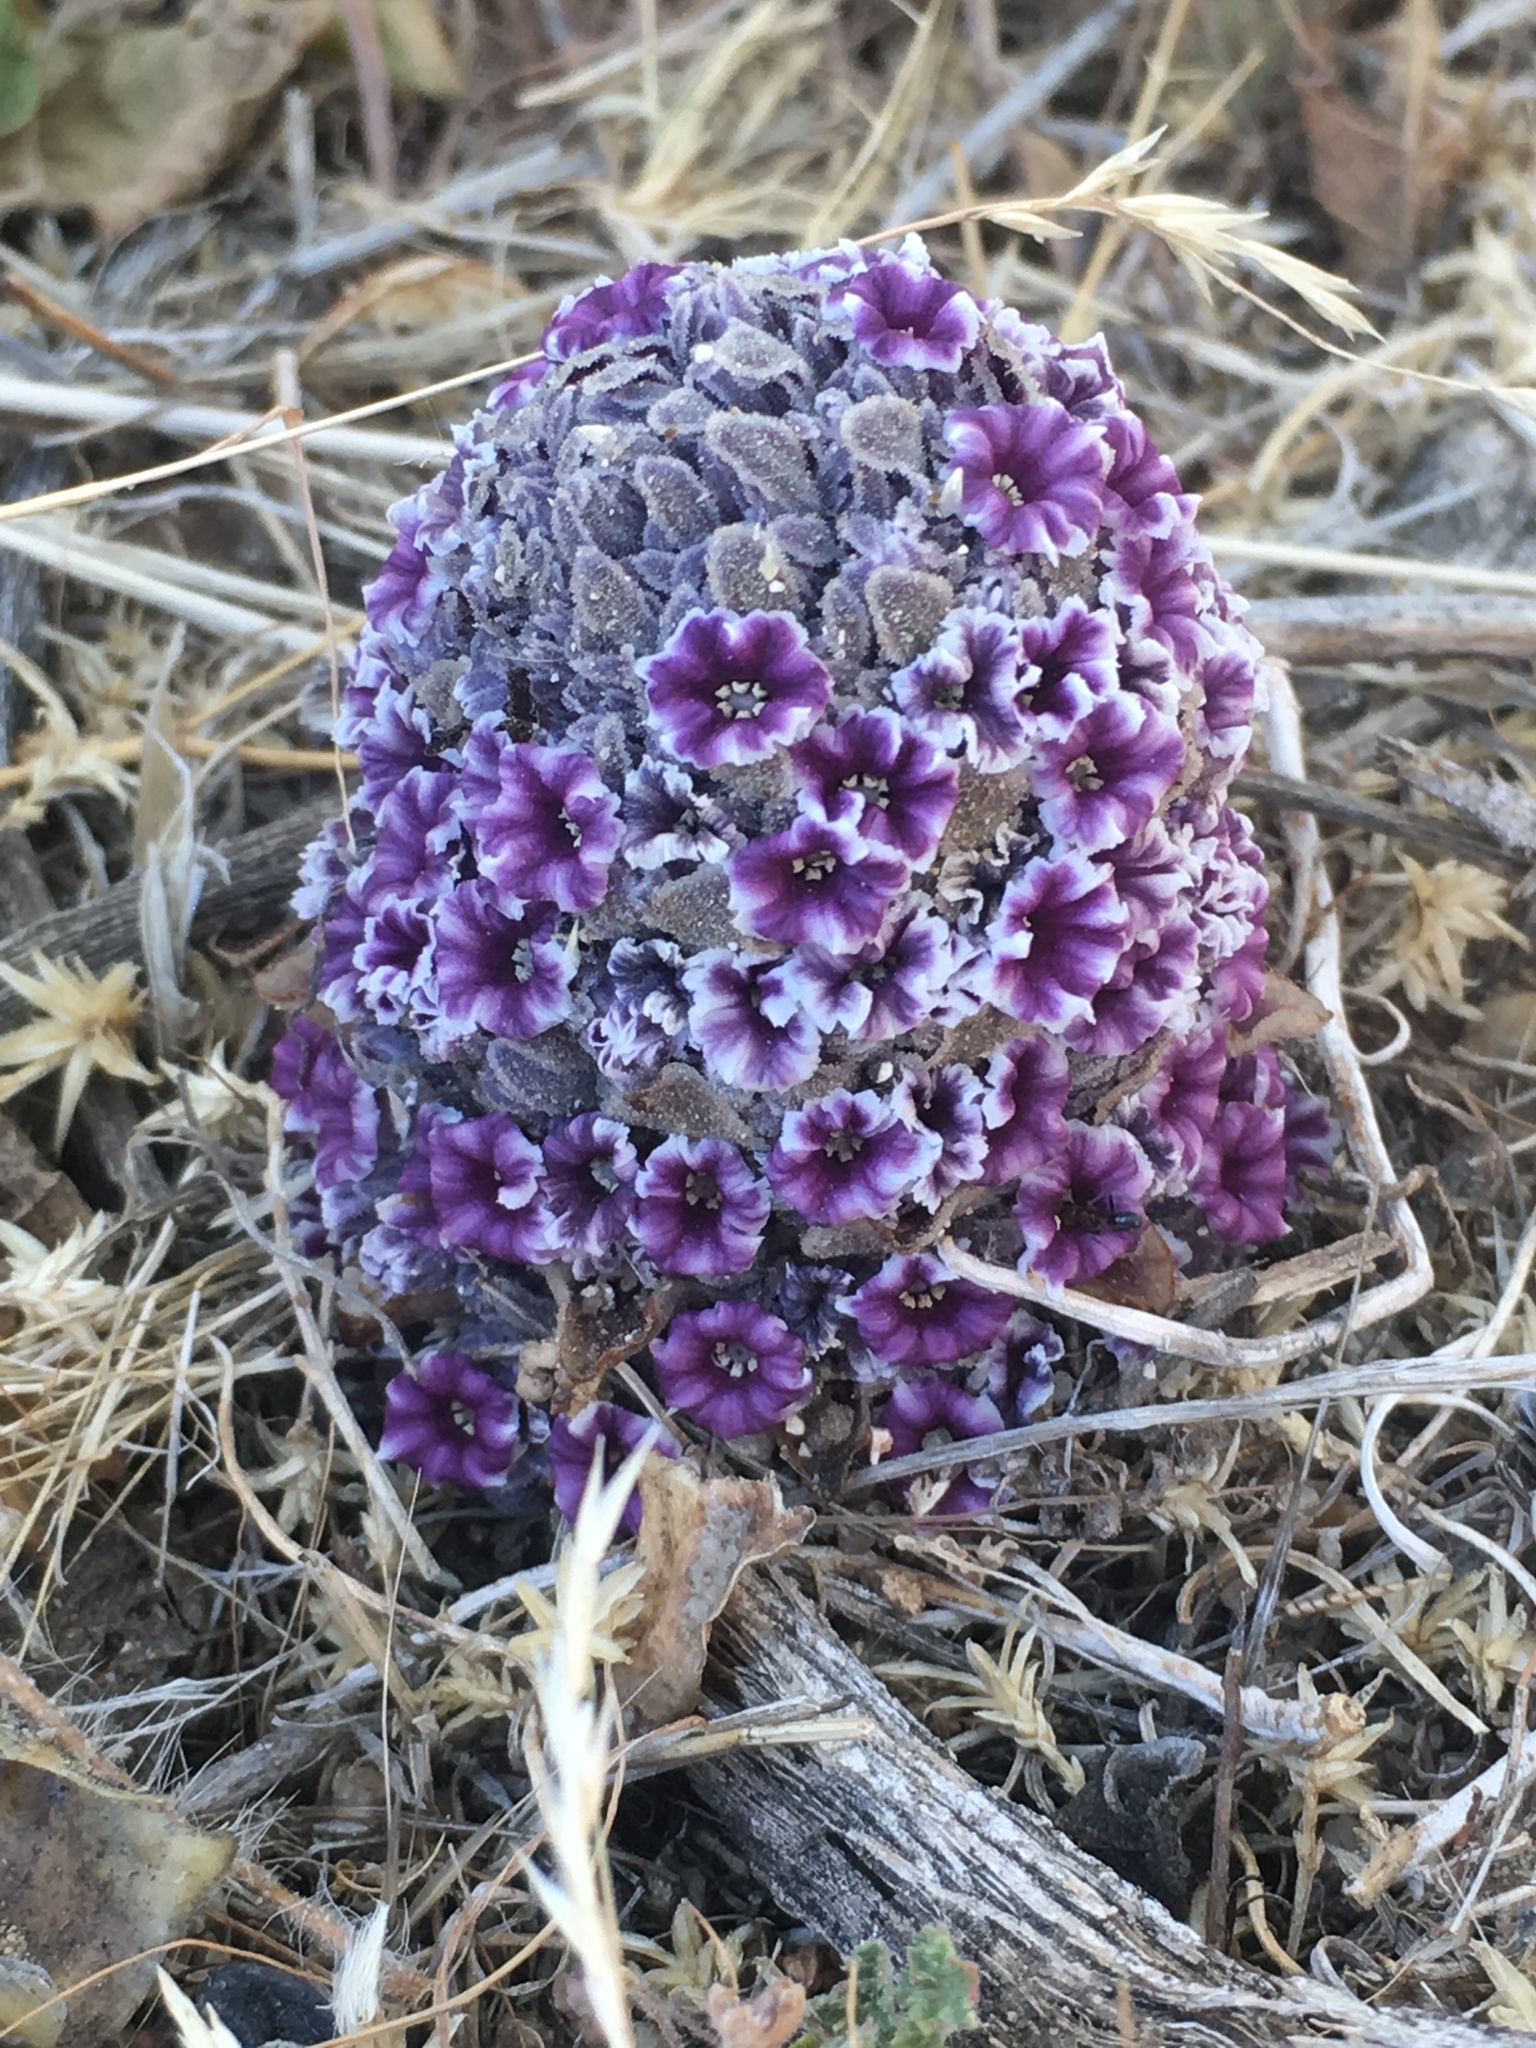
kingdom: Plantae
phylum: Tracheophyta
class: Magnoliopsida
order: Boraginales
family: Lennoaceae
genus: Pholisma
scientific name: Pholisma arenarium
